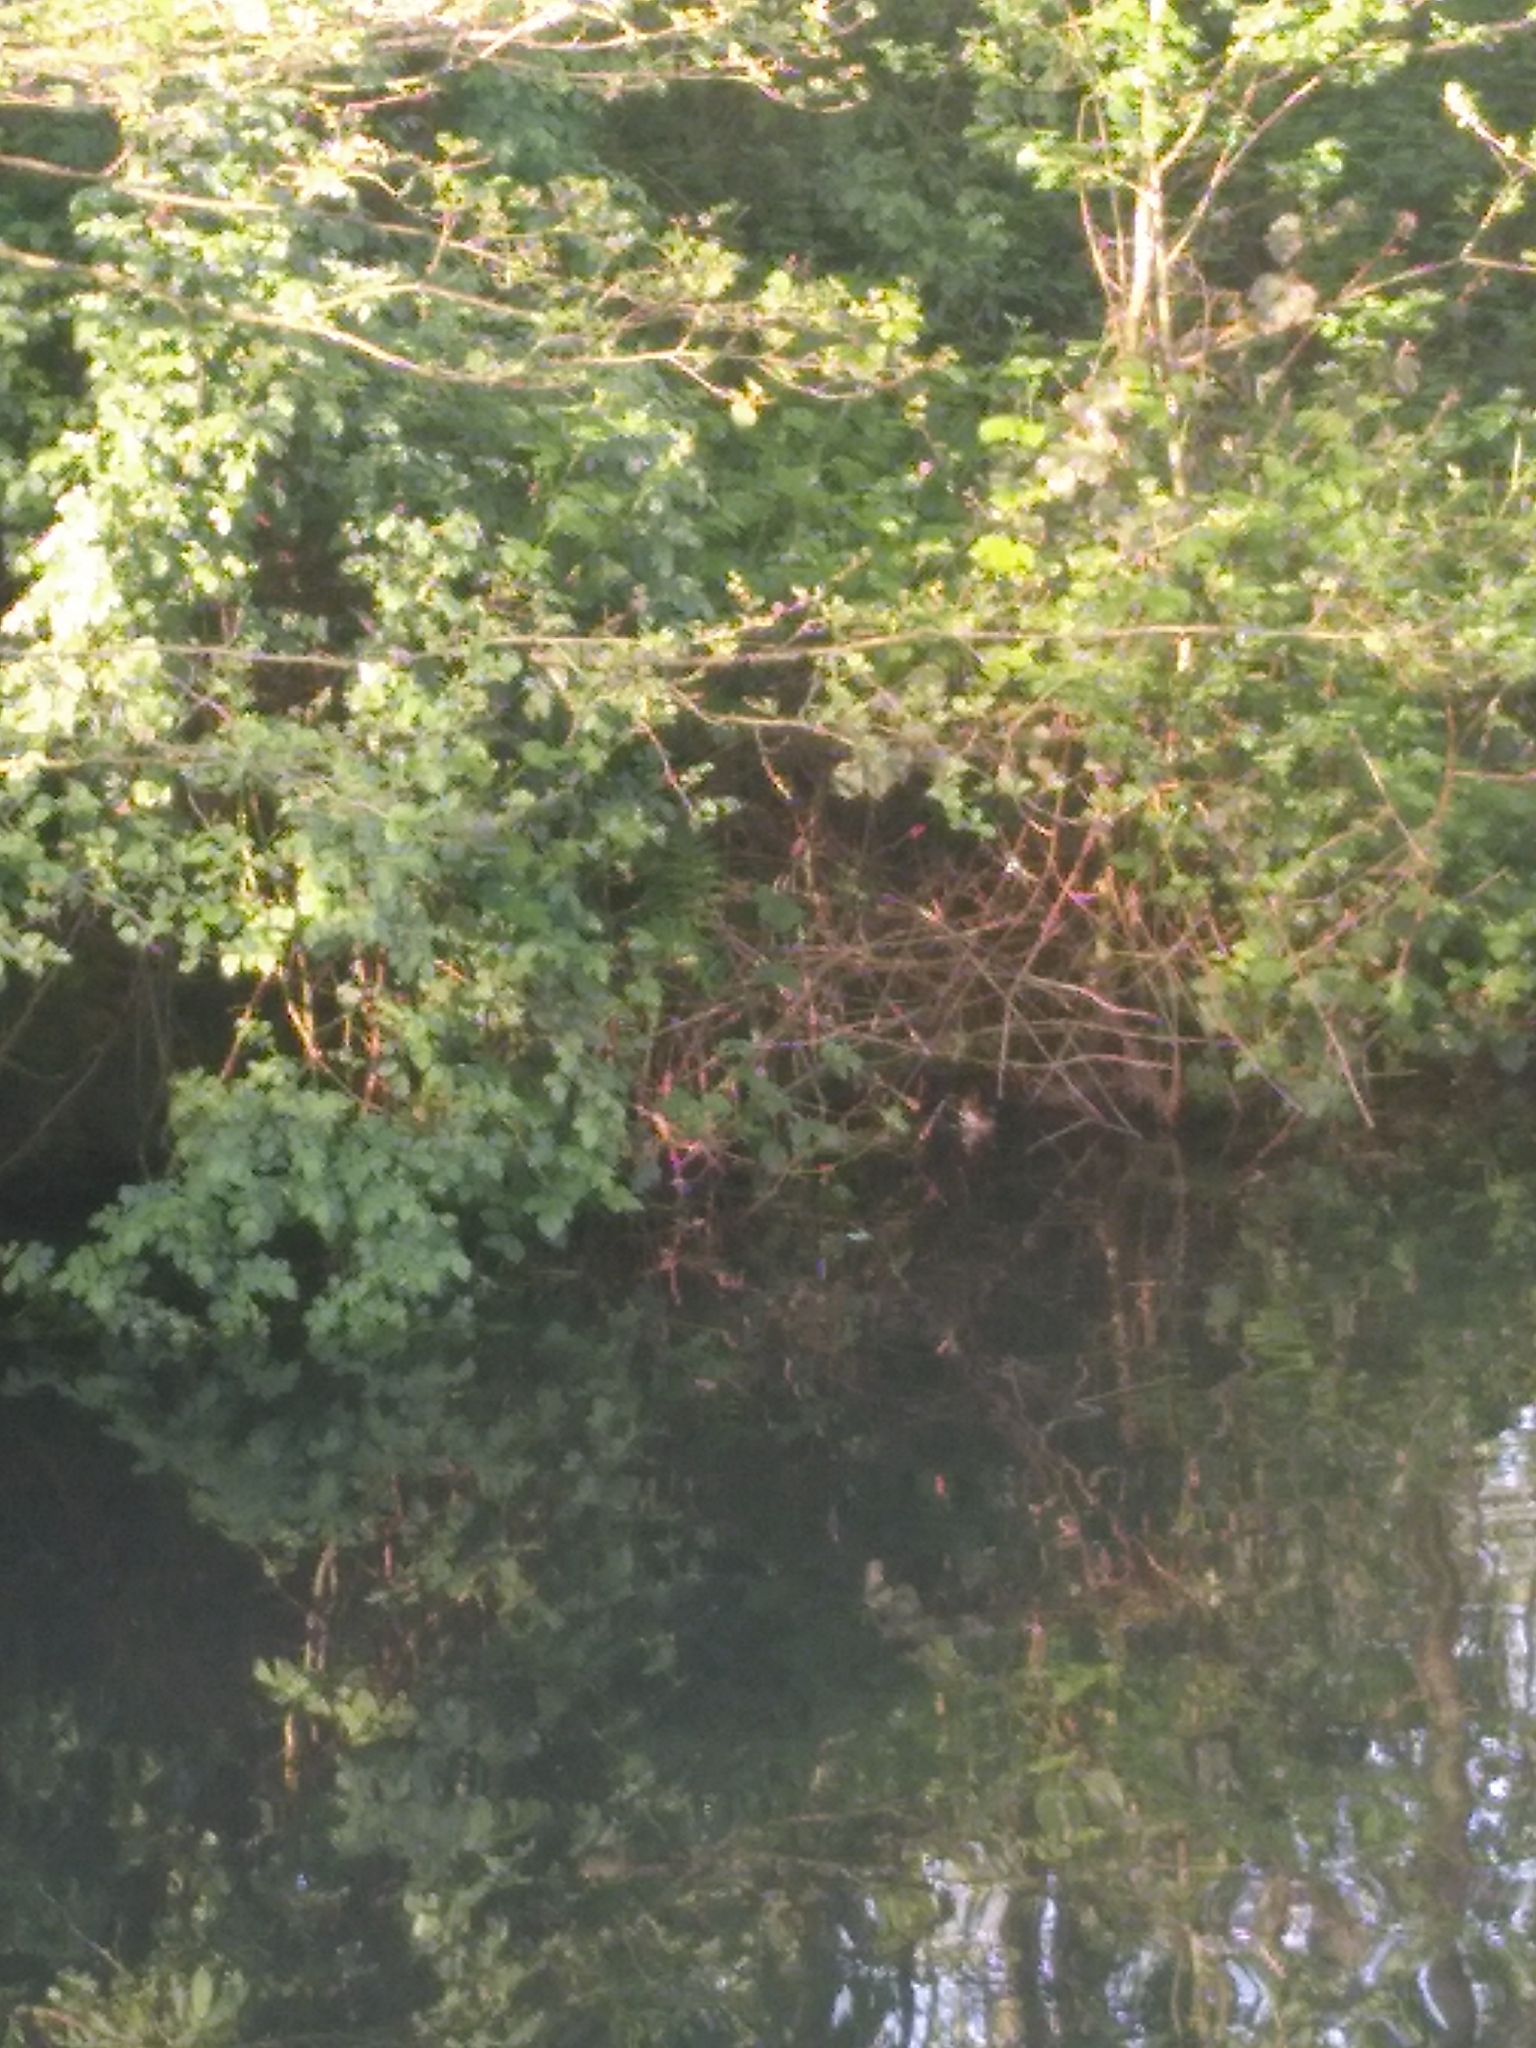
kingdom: Animalia
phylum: Chordata
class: Aves
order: Gruiformes
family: Rallidae
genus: Gallinula
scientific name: Gallinula chloropus
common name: Common moorhen
